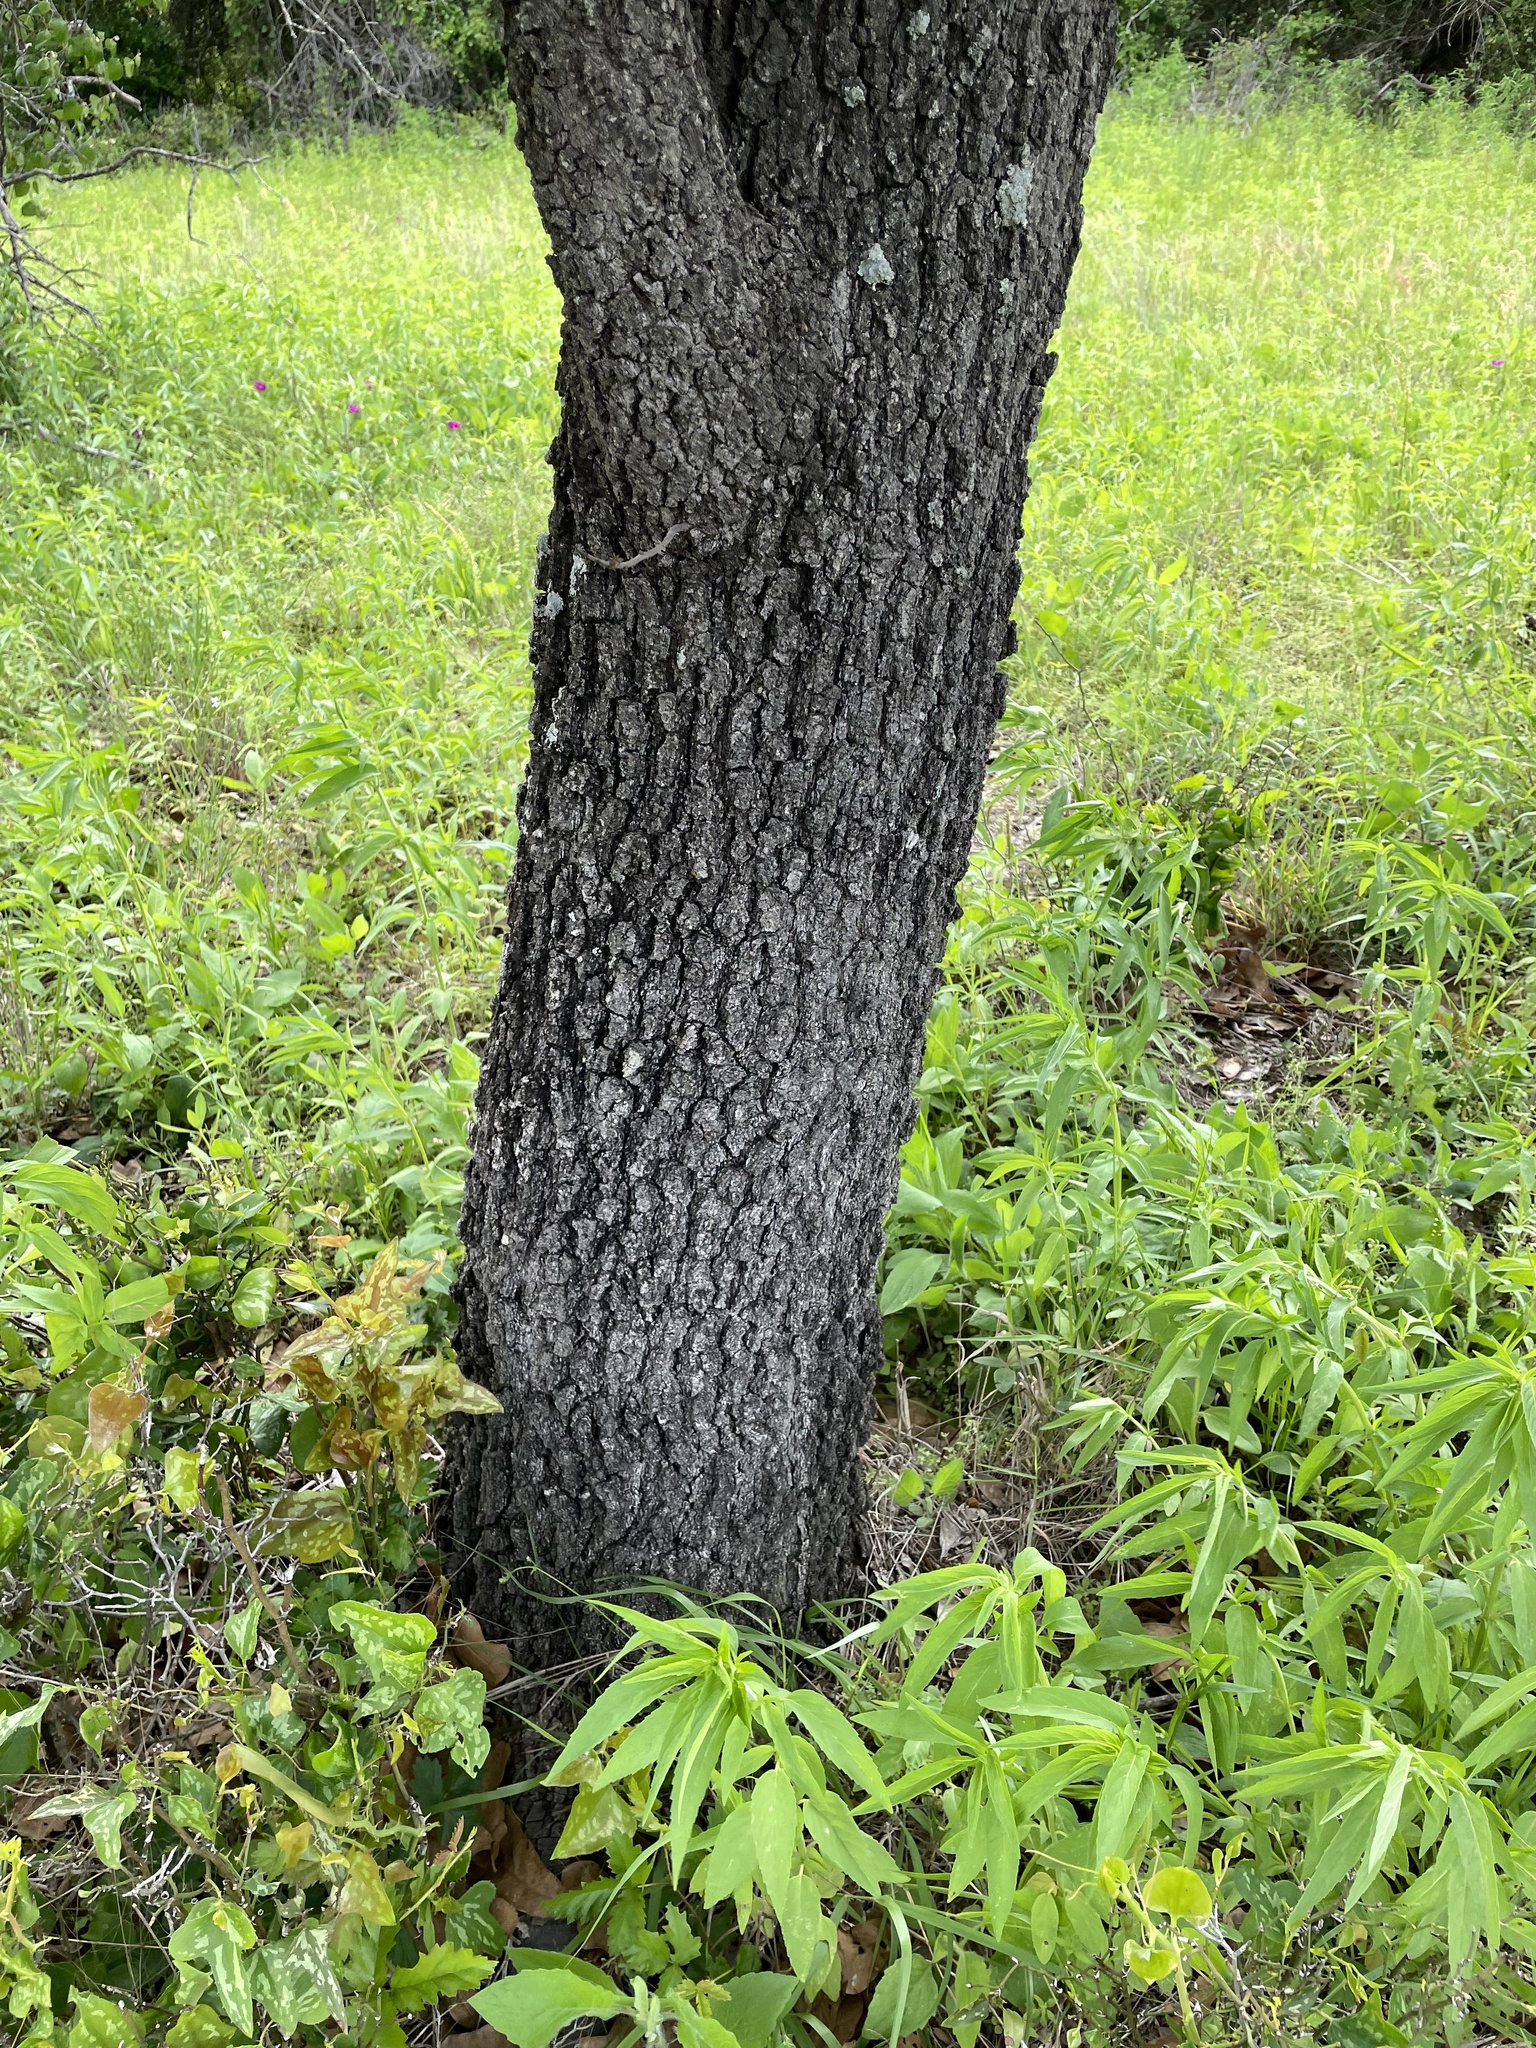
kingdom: Plantae
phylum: Tracheophyta
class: Magnoliopsida
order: Fagales
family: Fagaceae
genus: Quercus
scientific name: Quercus marilandica
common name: Blackjack oak
